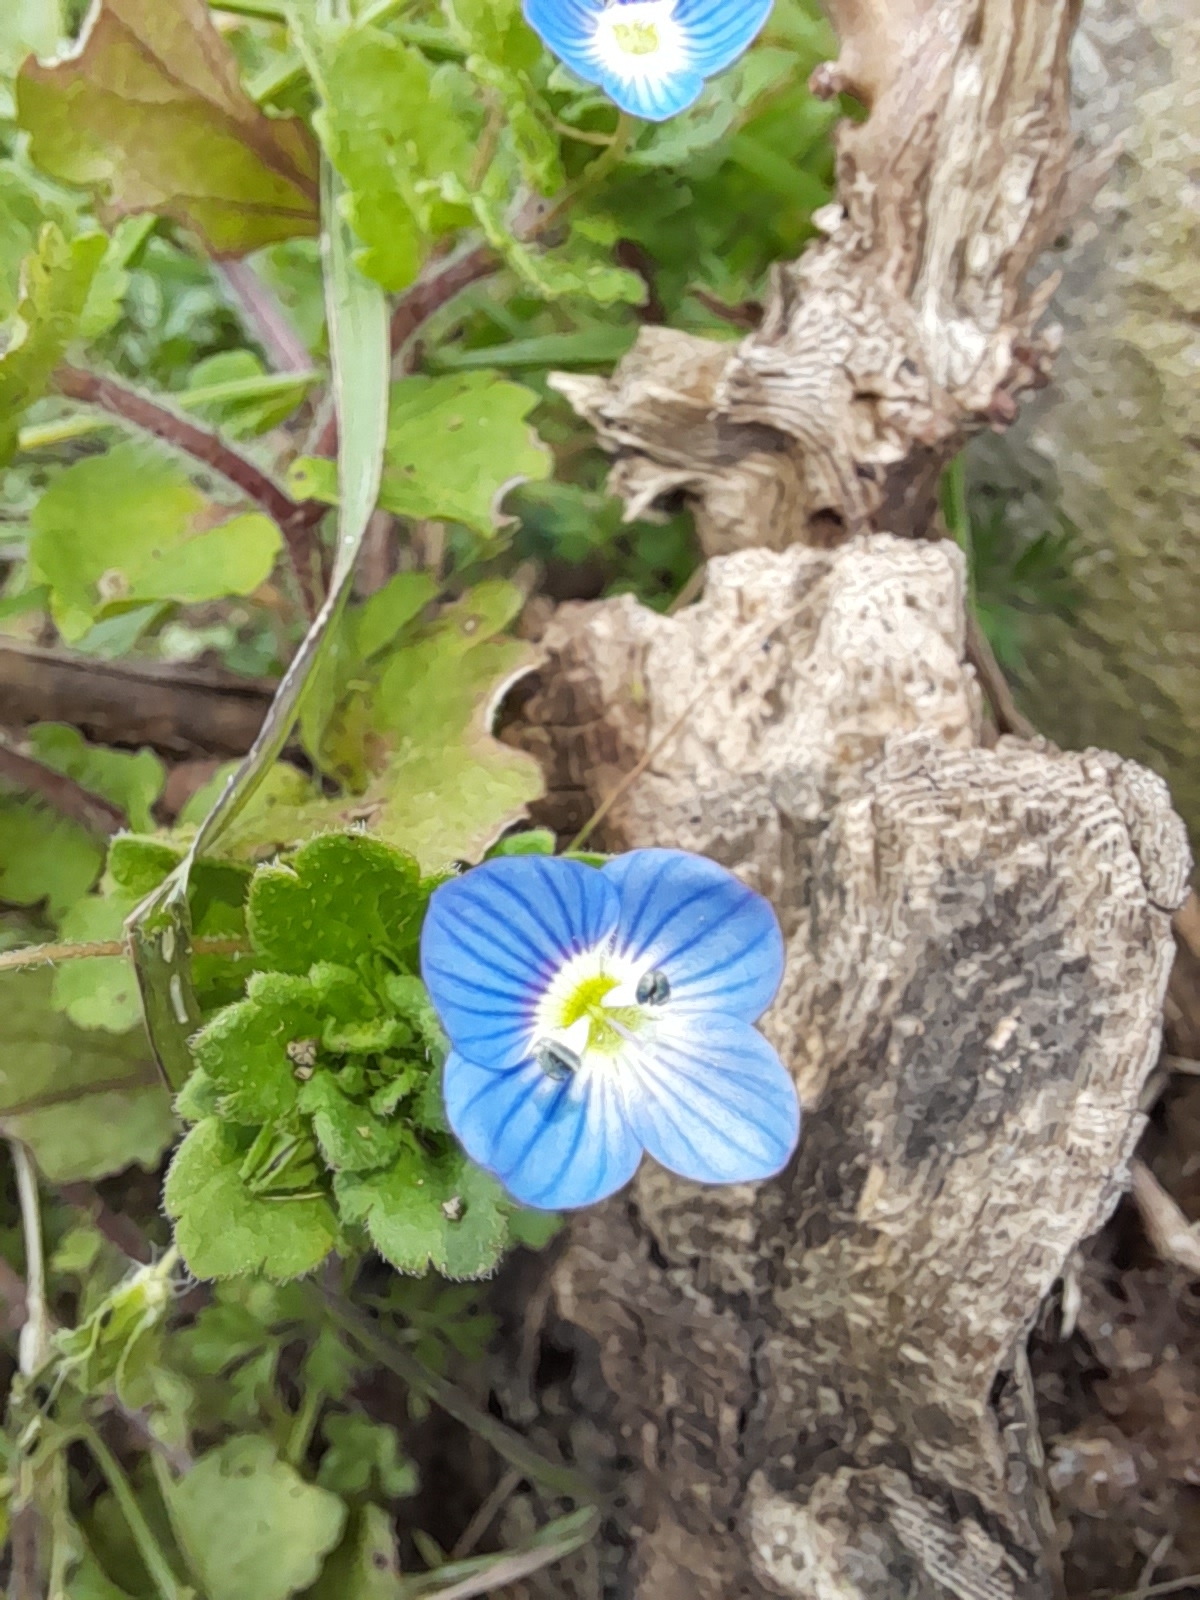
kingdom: Plantae
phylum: Tracheophyta
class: Magnoliopsida
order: Lamiales
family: Plantaginaceae
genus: Veronica
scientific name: Veronica persica
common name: Common field-speedwell
